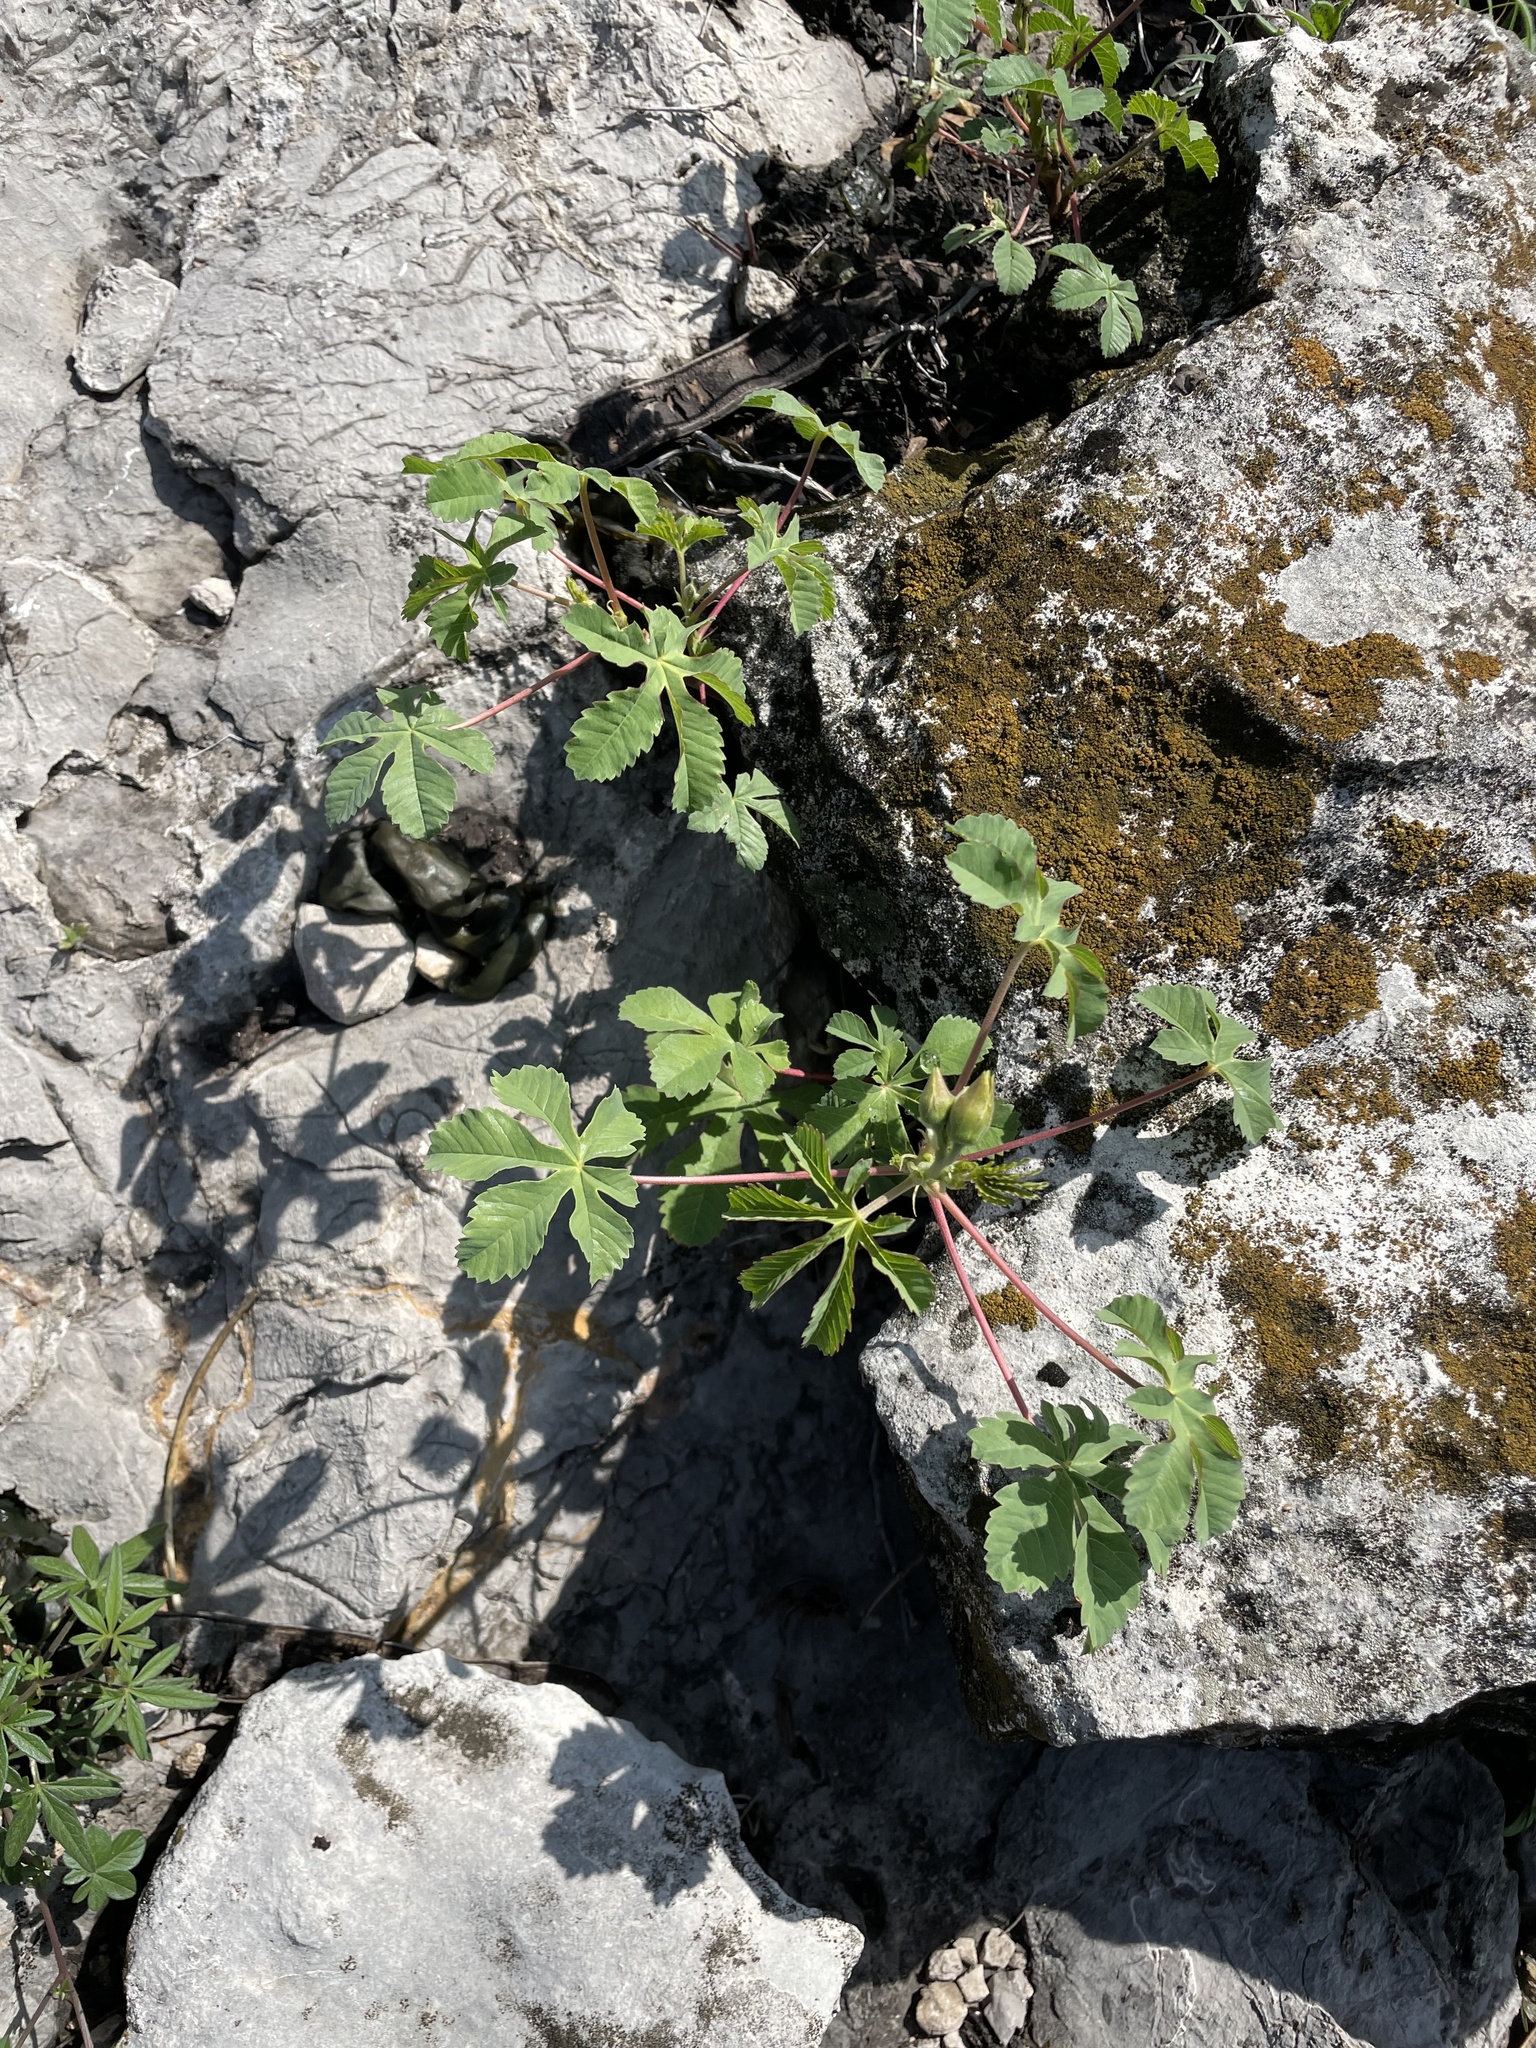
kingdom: Plantae
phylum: Tracheophyta
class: Magnoliopsida
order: Malvales
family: Cochlospermaceae
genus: Cochlospermum
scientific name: Cochlospermum wrightii
